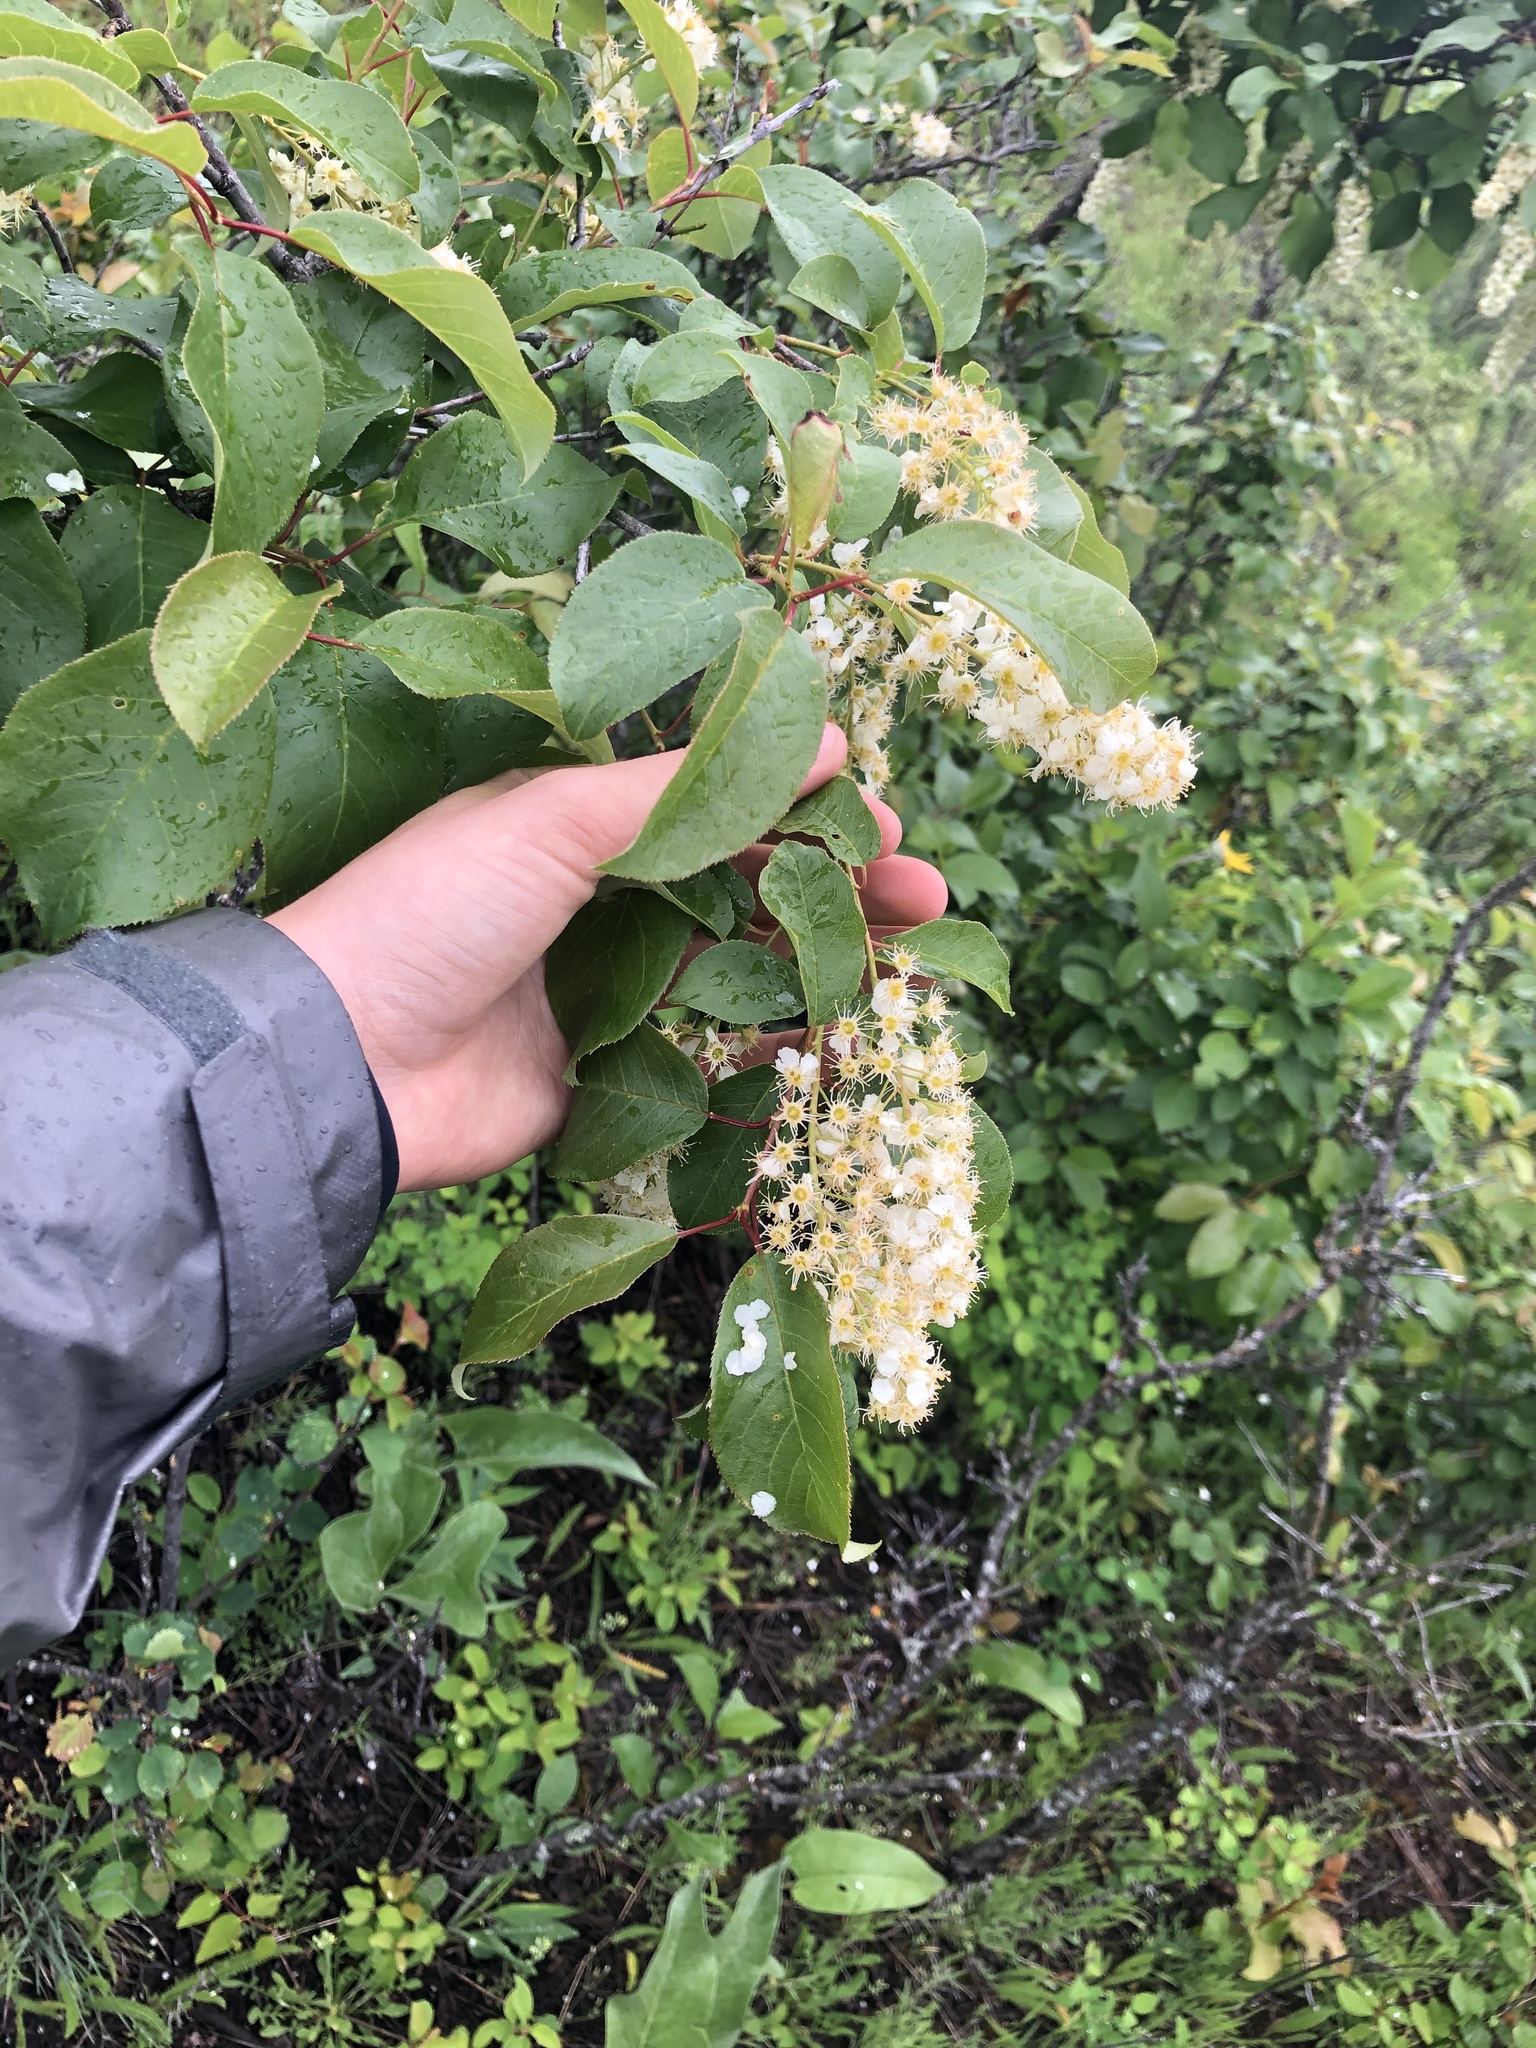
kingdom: Plantae
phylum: Tracheophyta
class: Magnoliopsida
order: Rosales
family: Rosaceae
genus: Prunus
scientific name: Prunus virginiana
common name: Chokecherry
